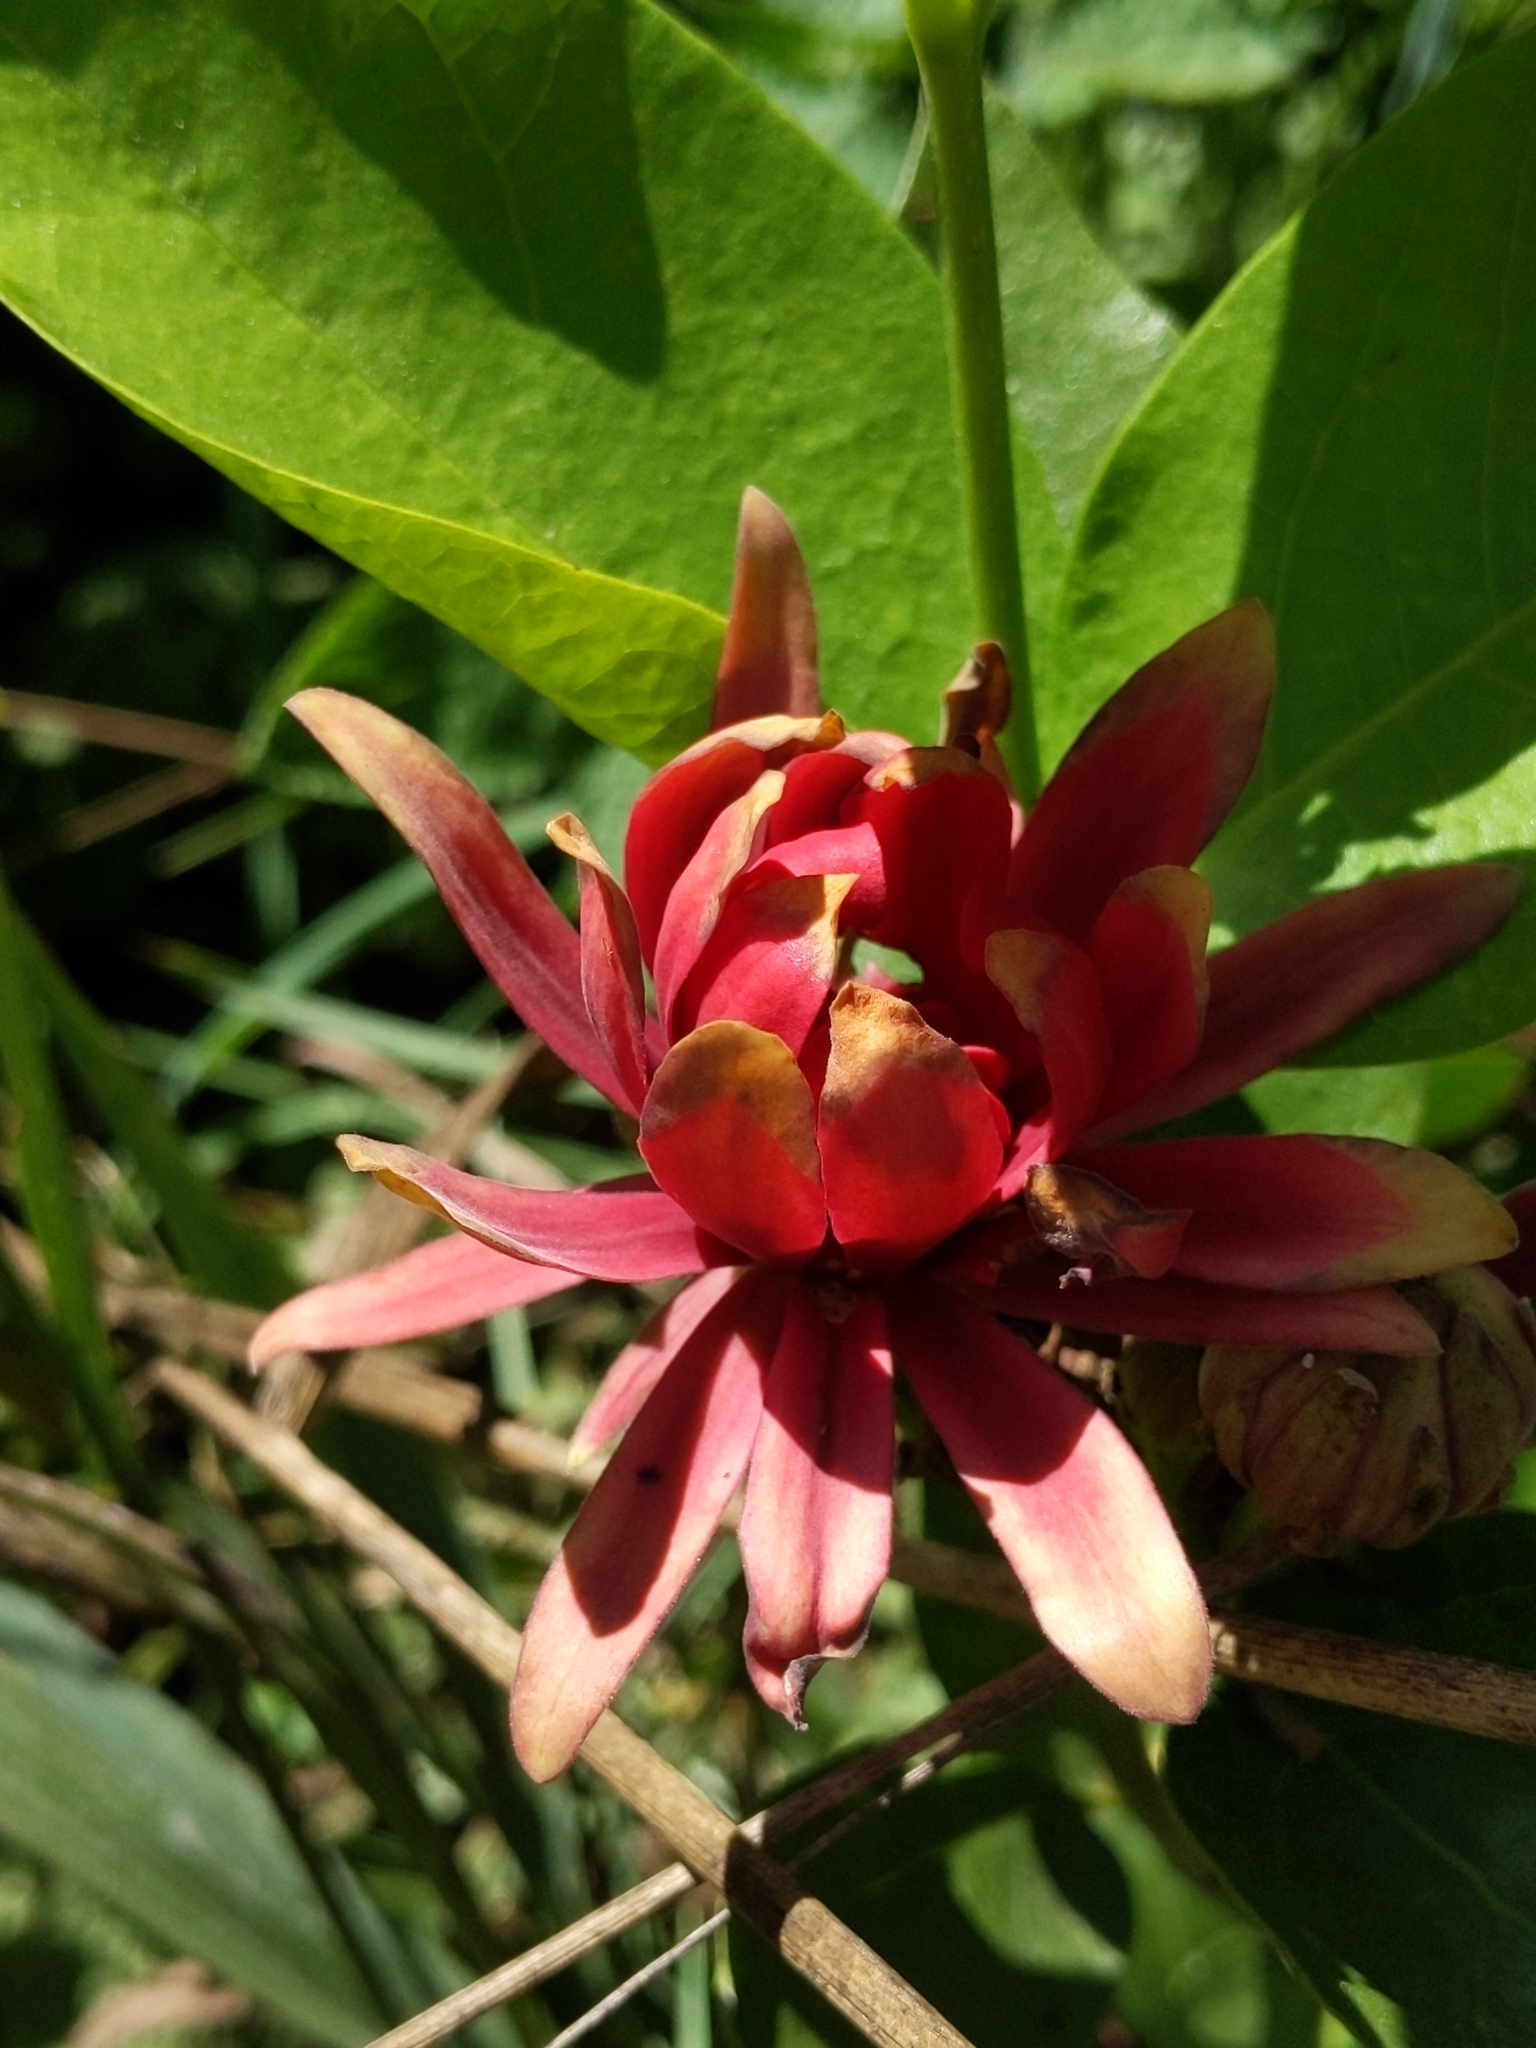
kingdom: Plantae
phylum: Tracheophyta
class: Magnoliopsida
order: Laurales
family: Calycanthaceae
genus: Calycanthus
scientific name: Calycanthus occidentalis
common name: California spicebush
